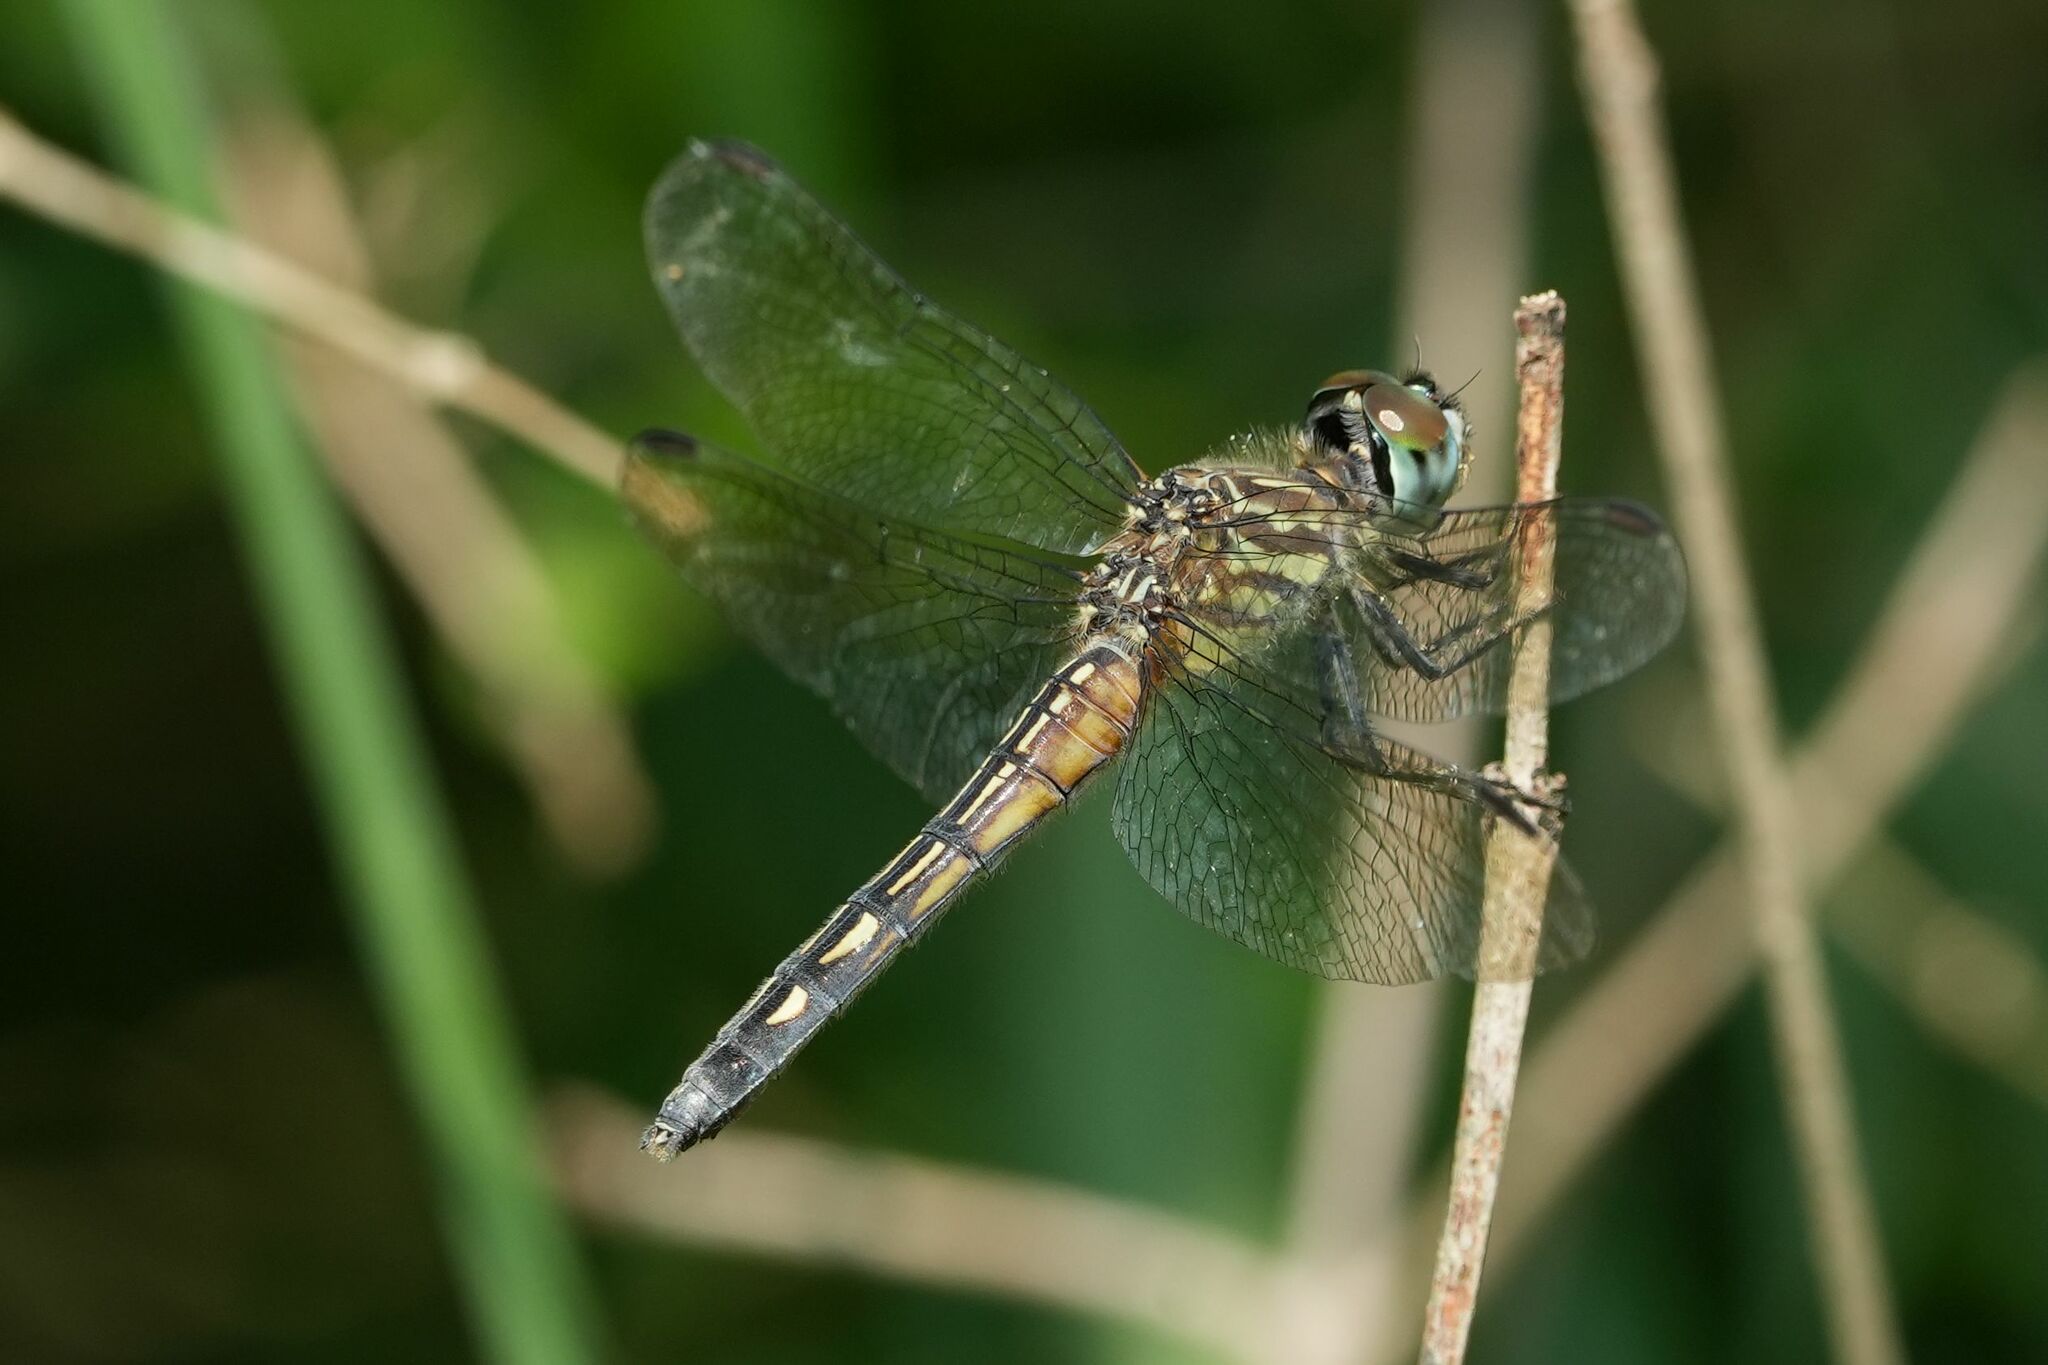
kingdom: Animalia
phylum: Arthropoda
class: Insecta
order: Odonata
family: Libellulidae
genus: Pachydiplax
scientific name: Pachydiplax longipennis
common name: Blue dasher
